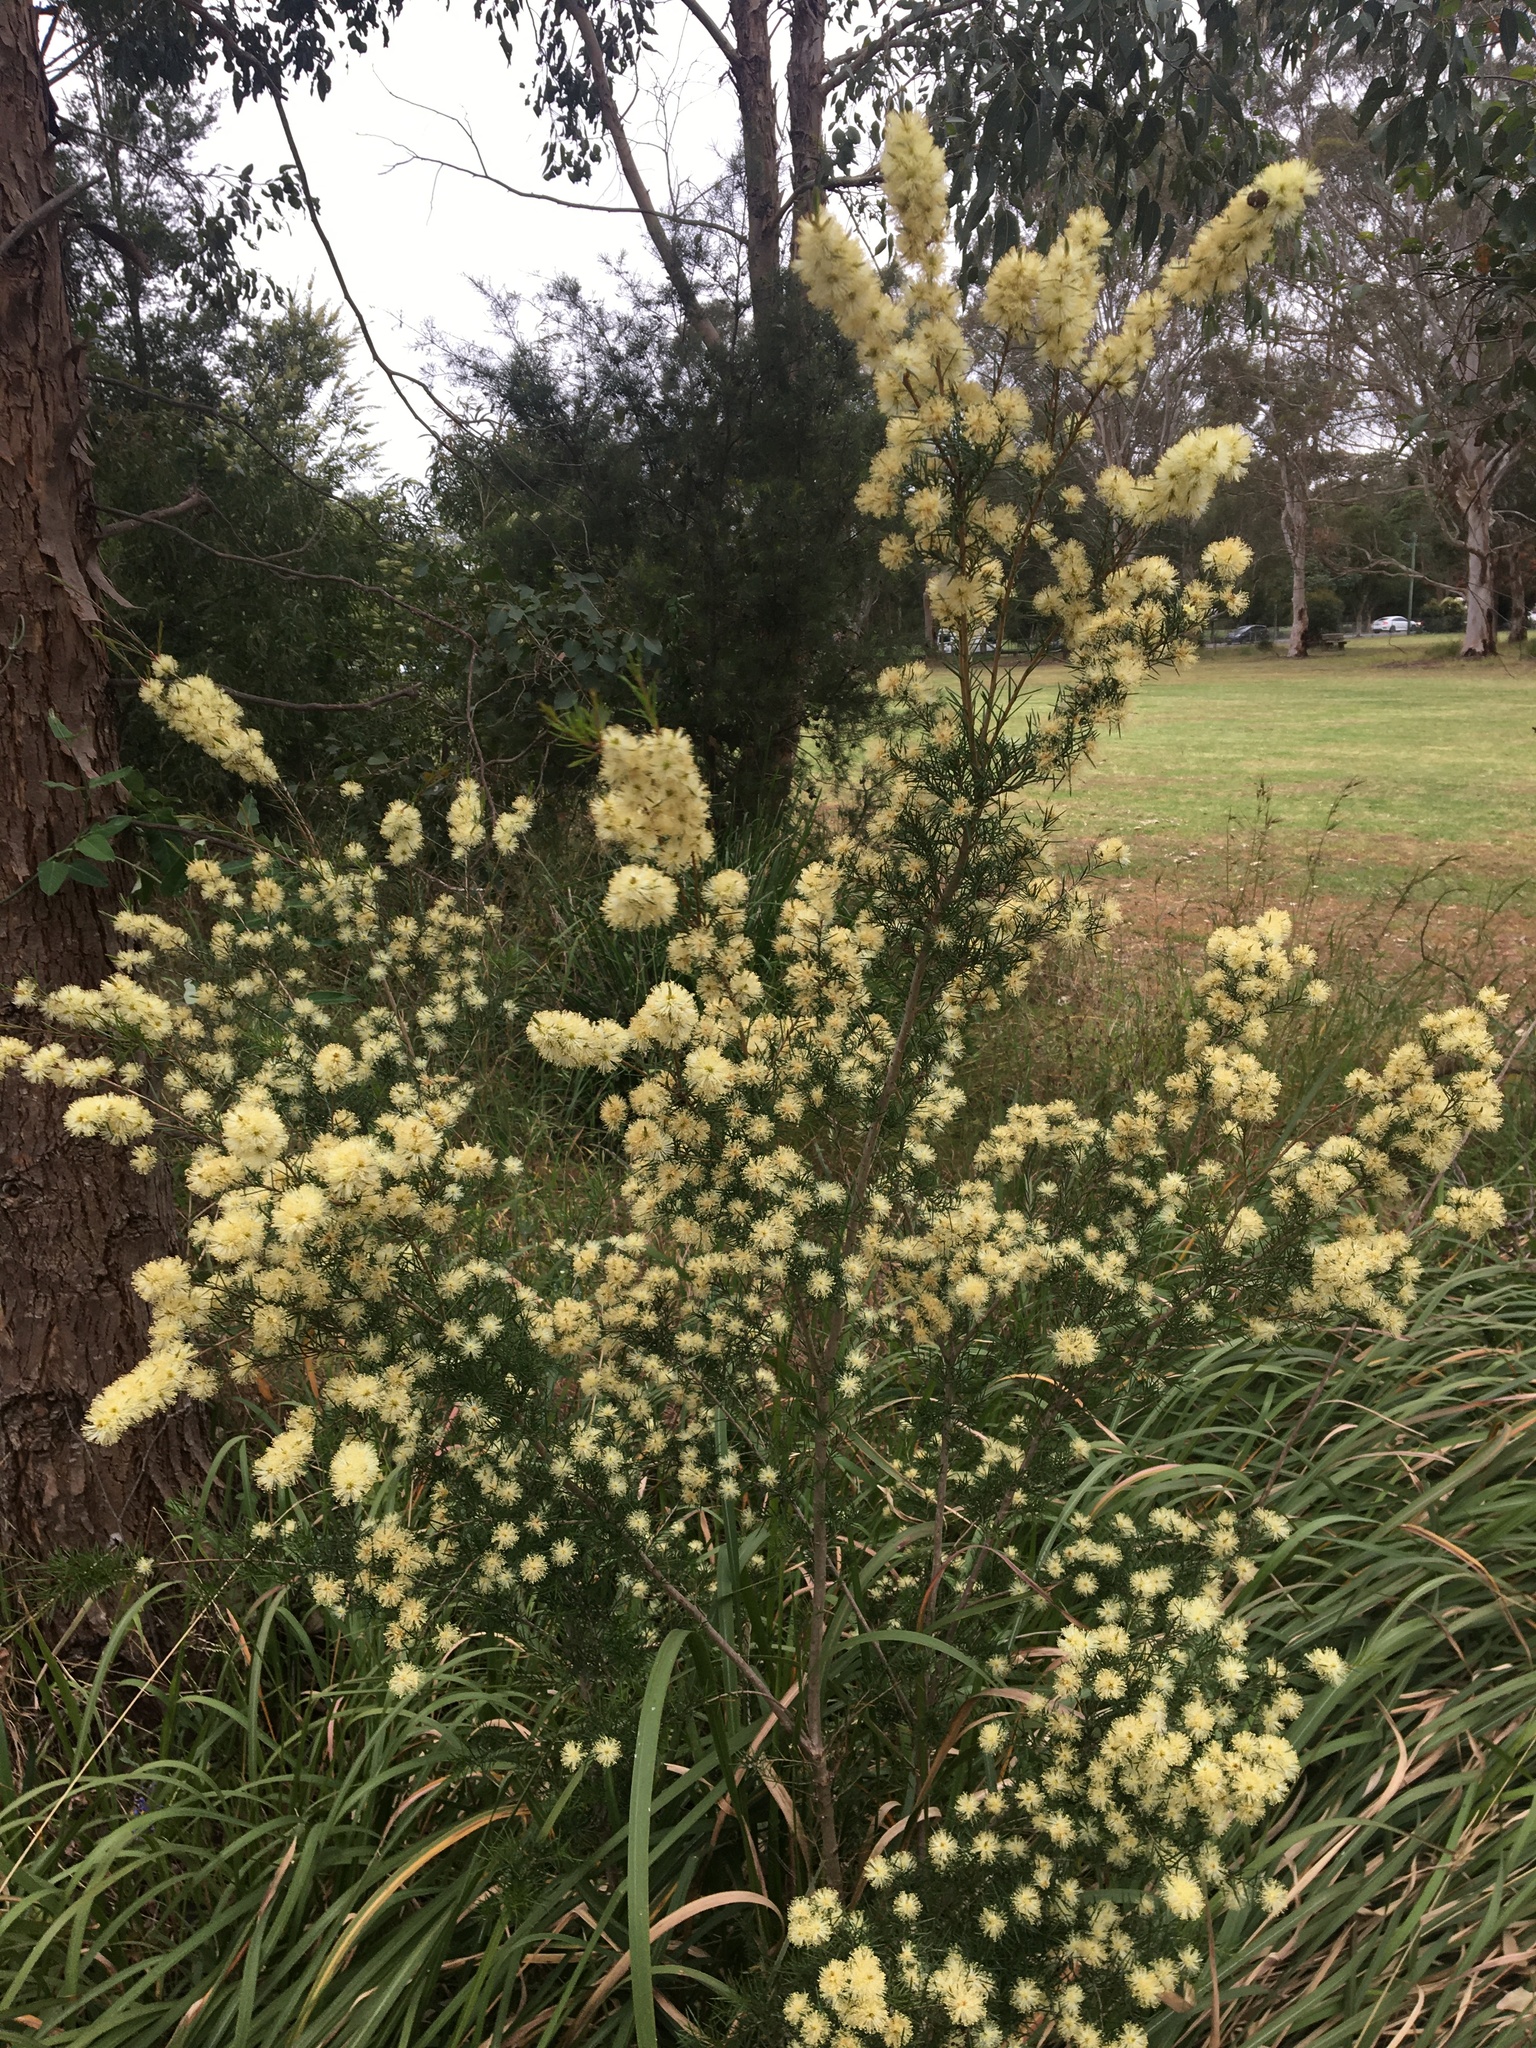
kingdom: Plantae
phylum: Tracheophyta
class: Magnoliopsida
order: Myrtales
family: Myrtaceae
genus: Melaleuca
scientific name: Melaleuca nodosa
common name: Prickly-leaf paperbark
